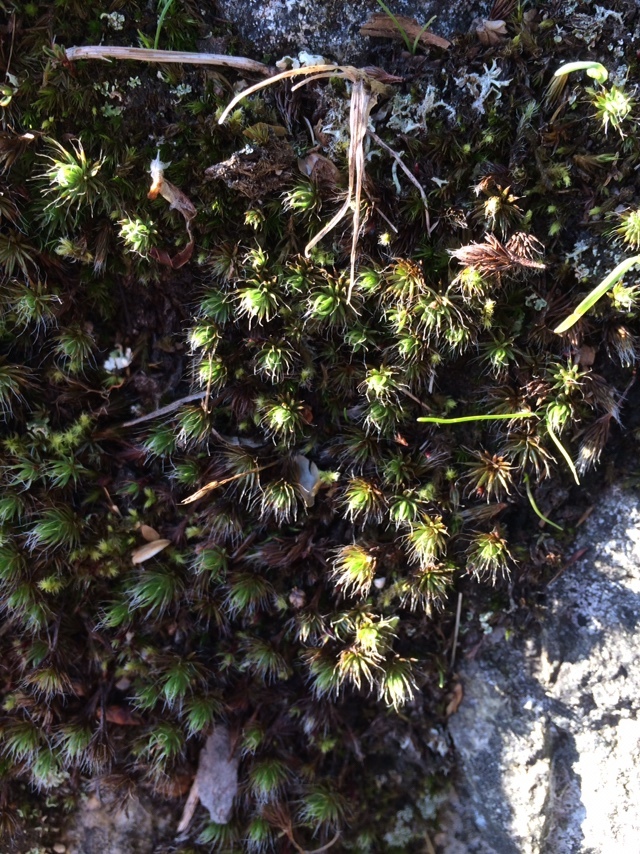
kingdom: Plantae
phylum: Bryophyta
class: Polytrichopsida
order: Polytrichales
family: Polytrichaceae
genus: Polytrichum
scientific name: Polytrichum piliferum
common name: Bristly haircap
